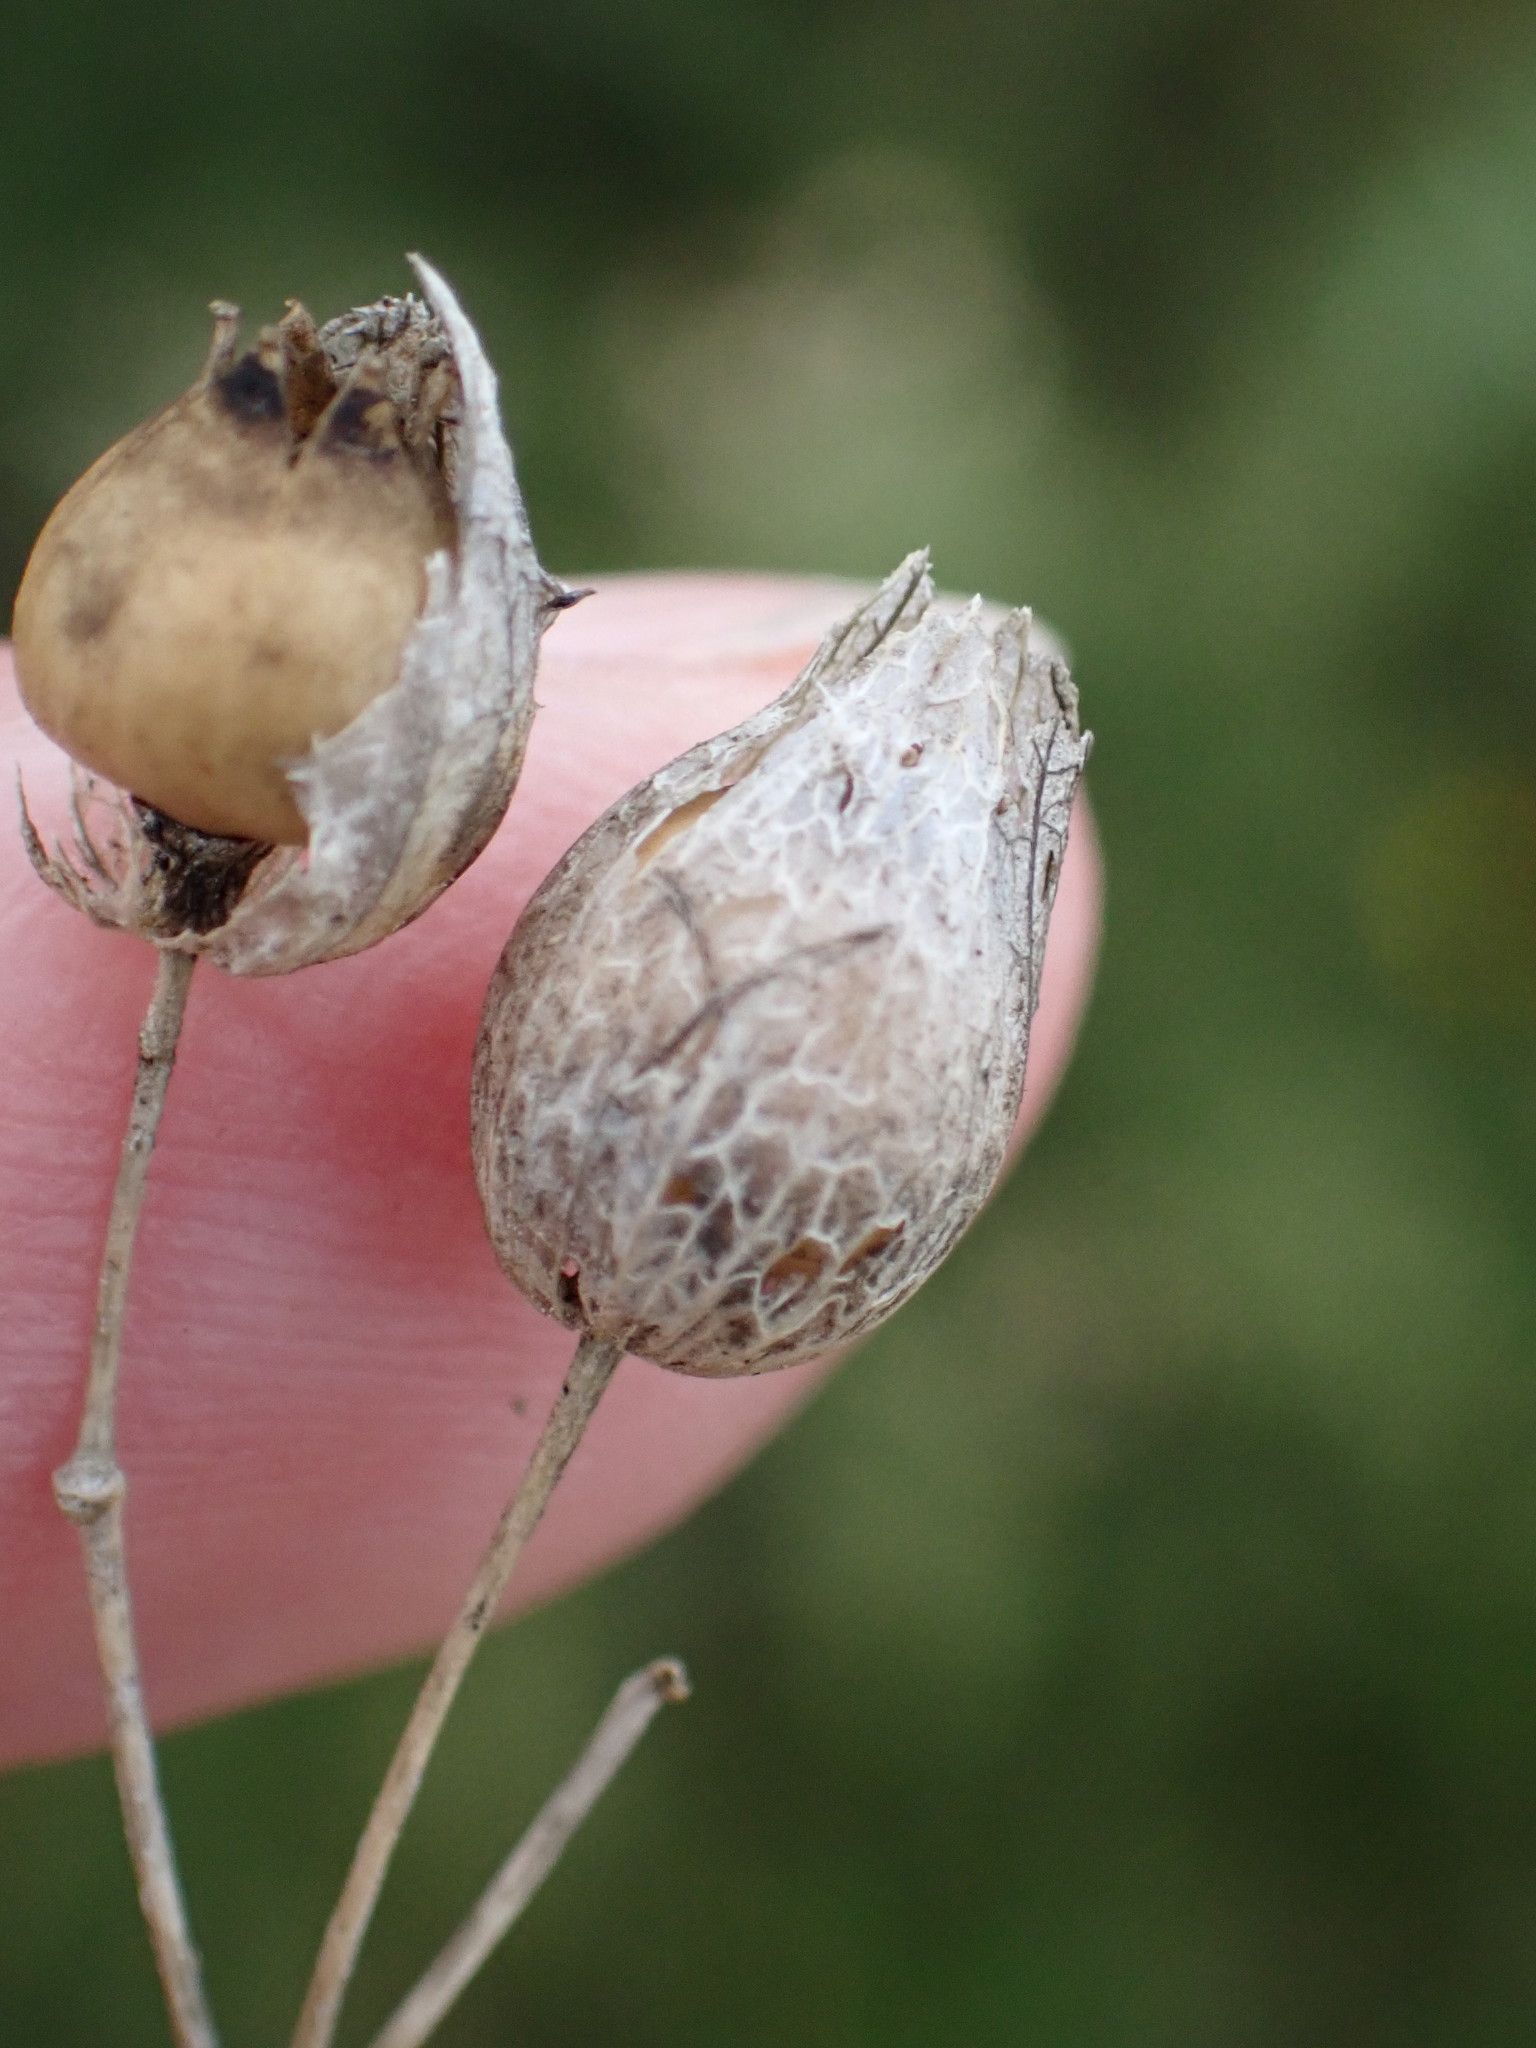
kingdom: Plantae
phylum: Tracheophyta
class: Magnoliopsida
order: Caryophyllales
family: Caryophyllaceae
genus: Silene
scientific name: Silene vulgaris
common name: Bladder campion
